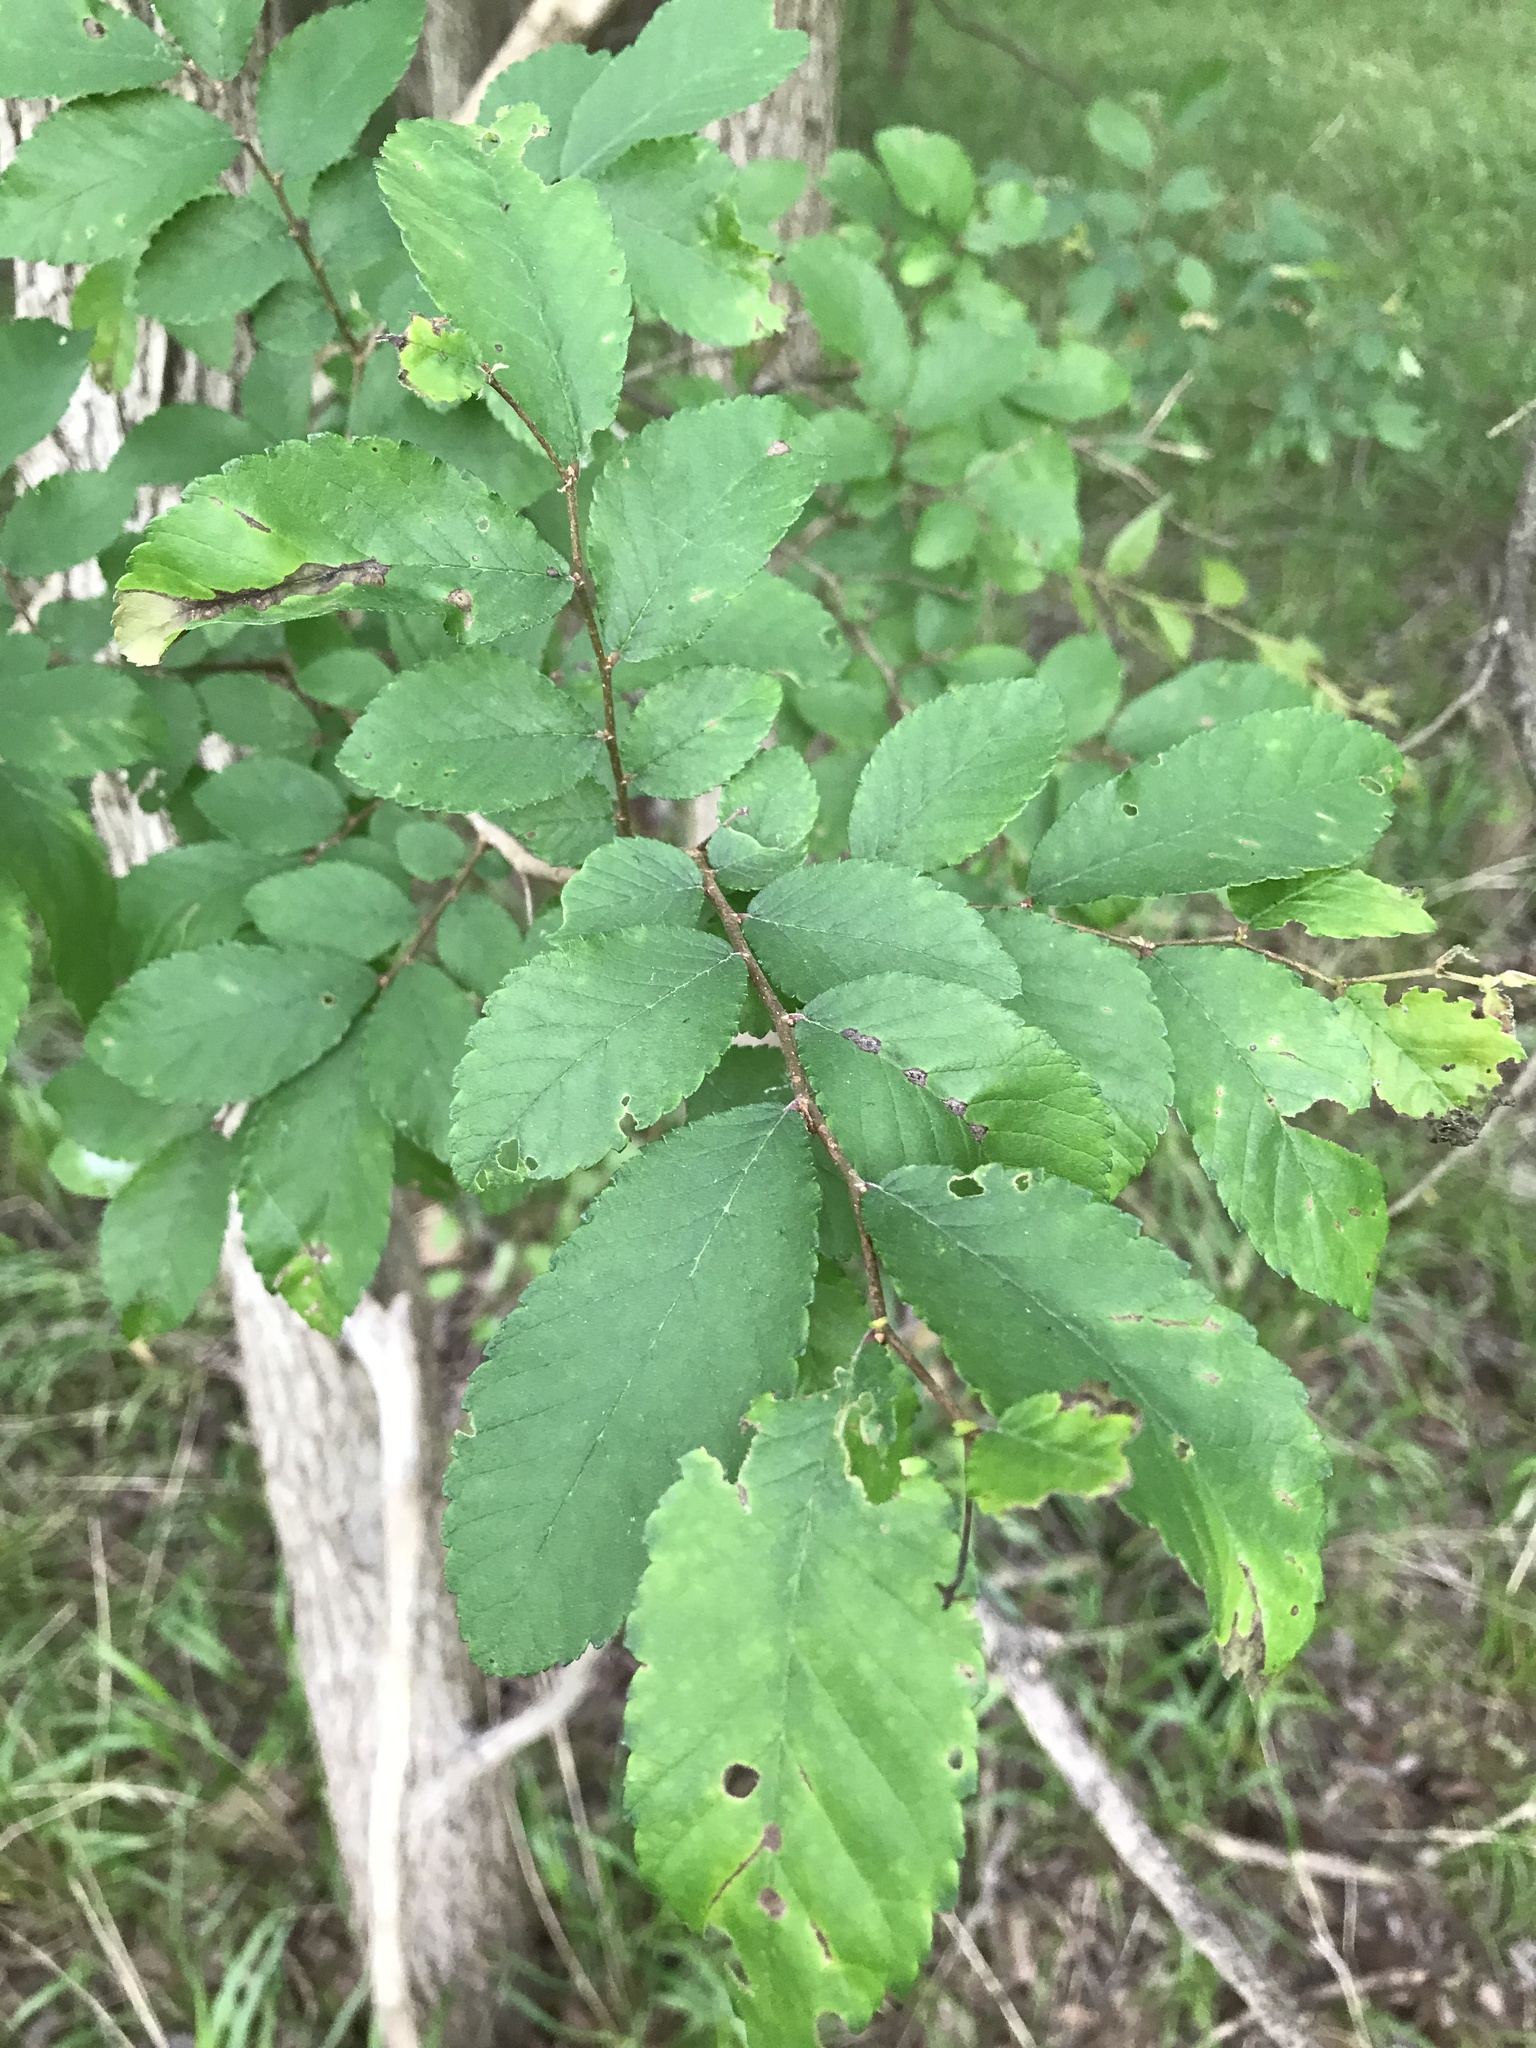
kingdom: Plantae
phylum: Tracheophyta
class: Magnoliopsida
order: Rosales
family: Ulmaceae
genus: Ulmus
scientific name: Ulmus crassifolia
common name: Basket elm
